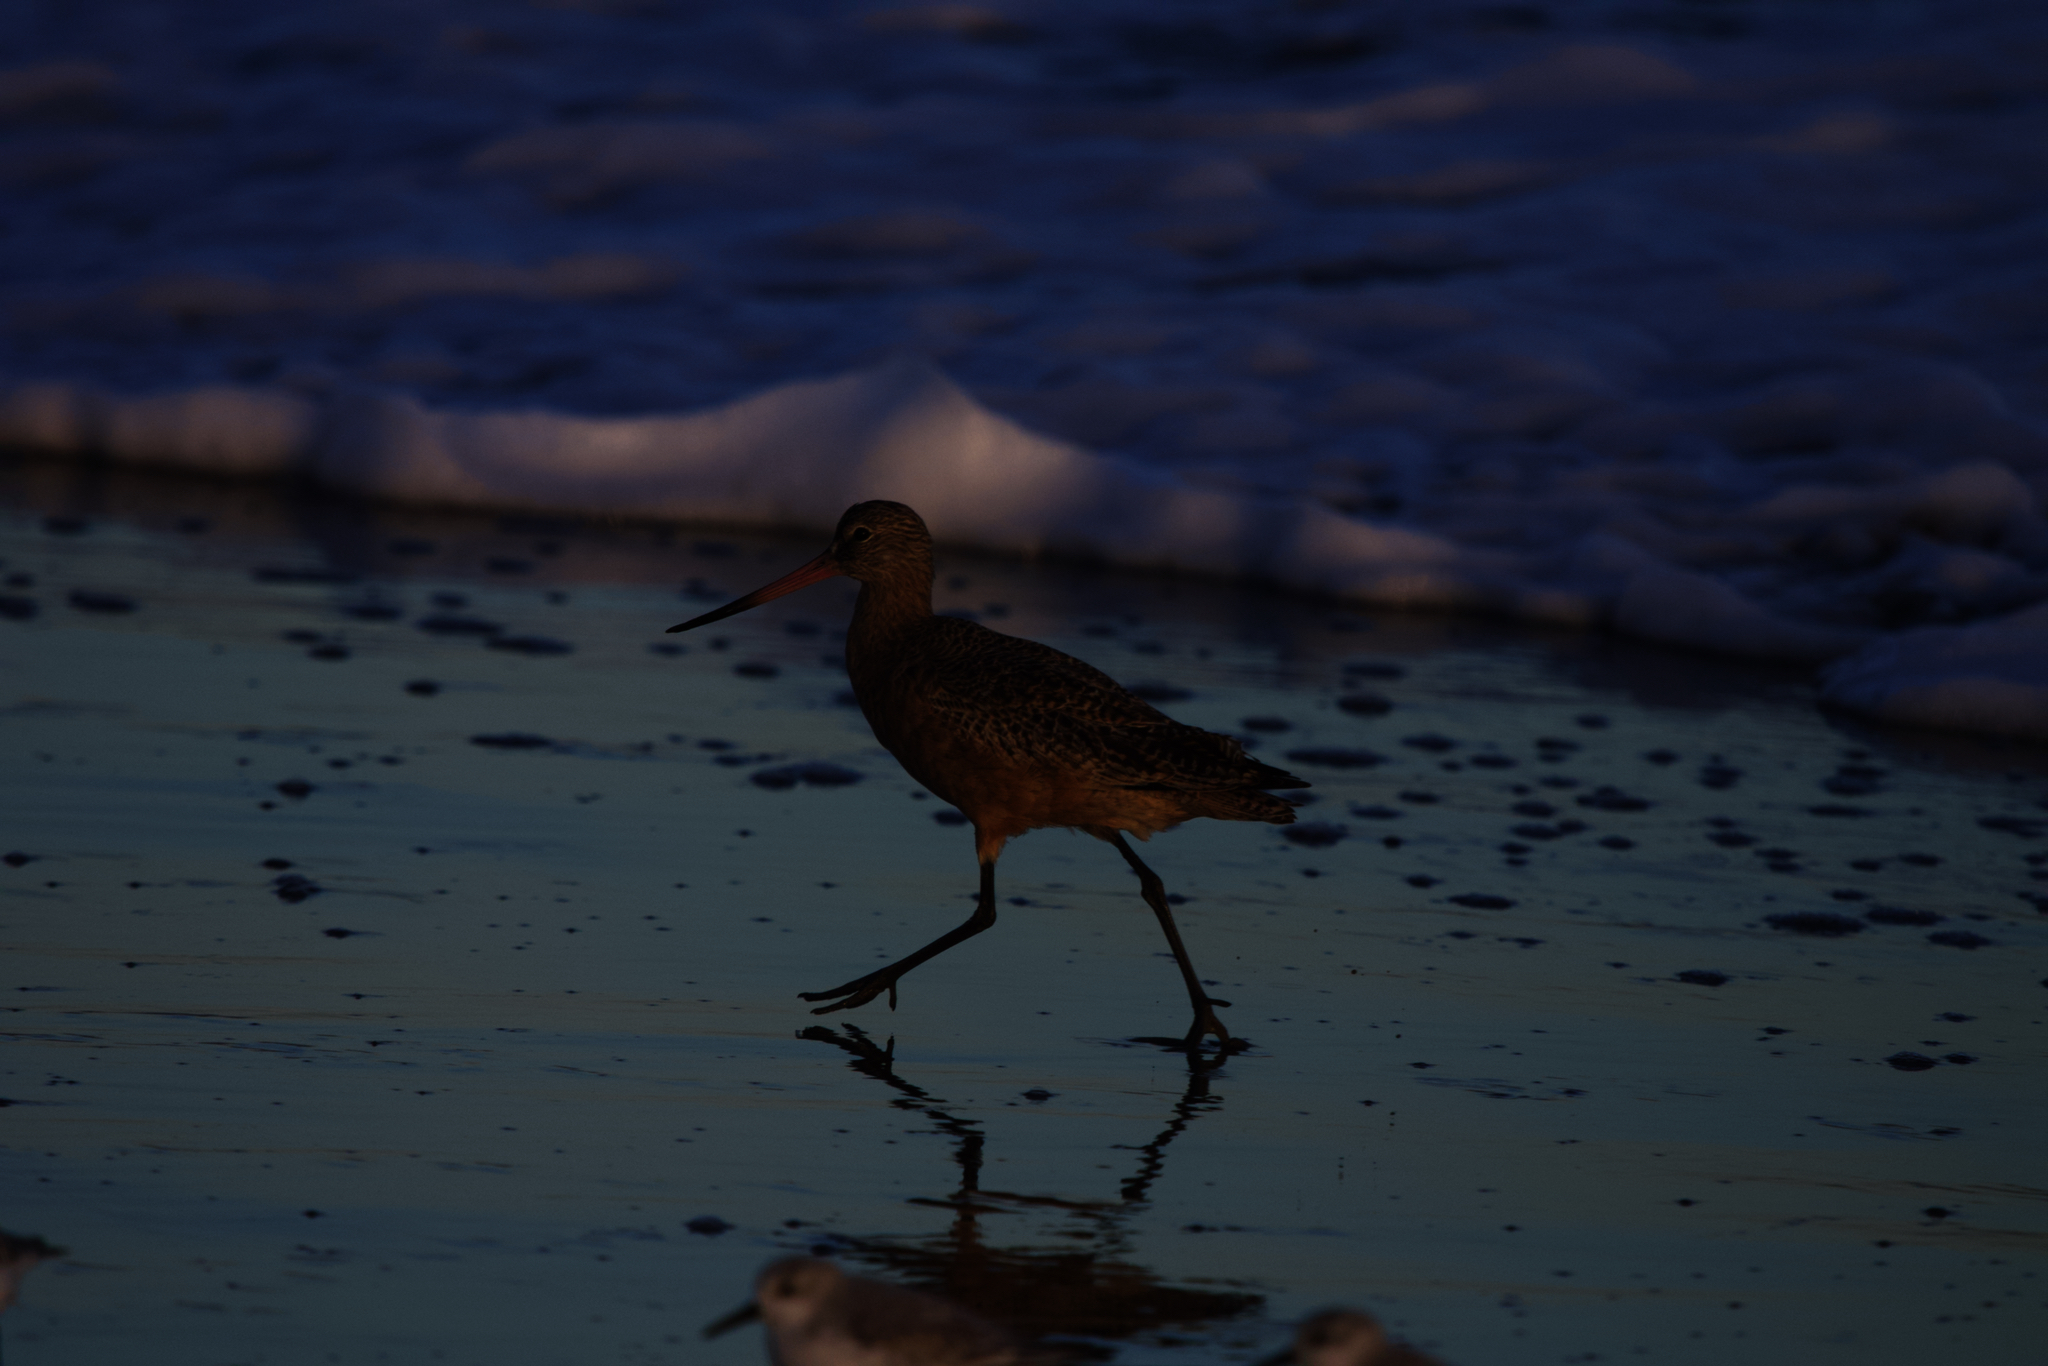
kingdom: Animalia
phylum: Chordata
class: Aves
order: Charadriiformes
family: Scolopacidae
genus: Limosa
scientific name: Limosa fedoa
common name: Marbled godwit
